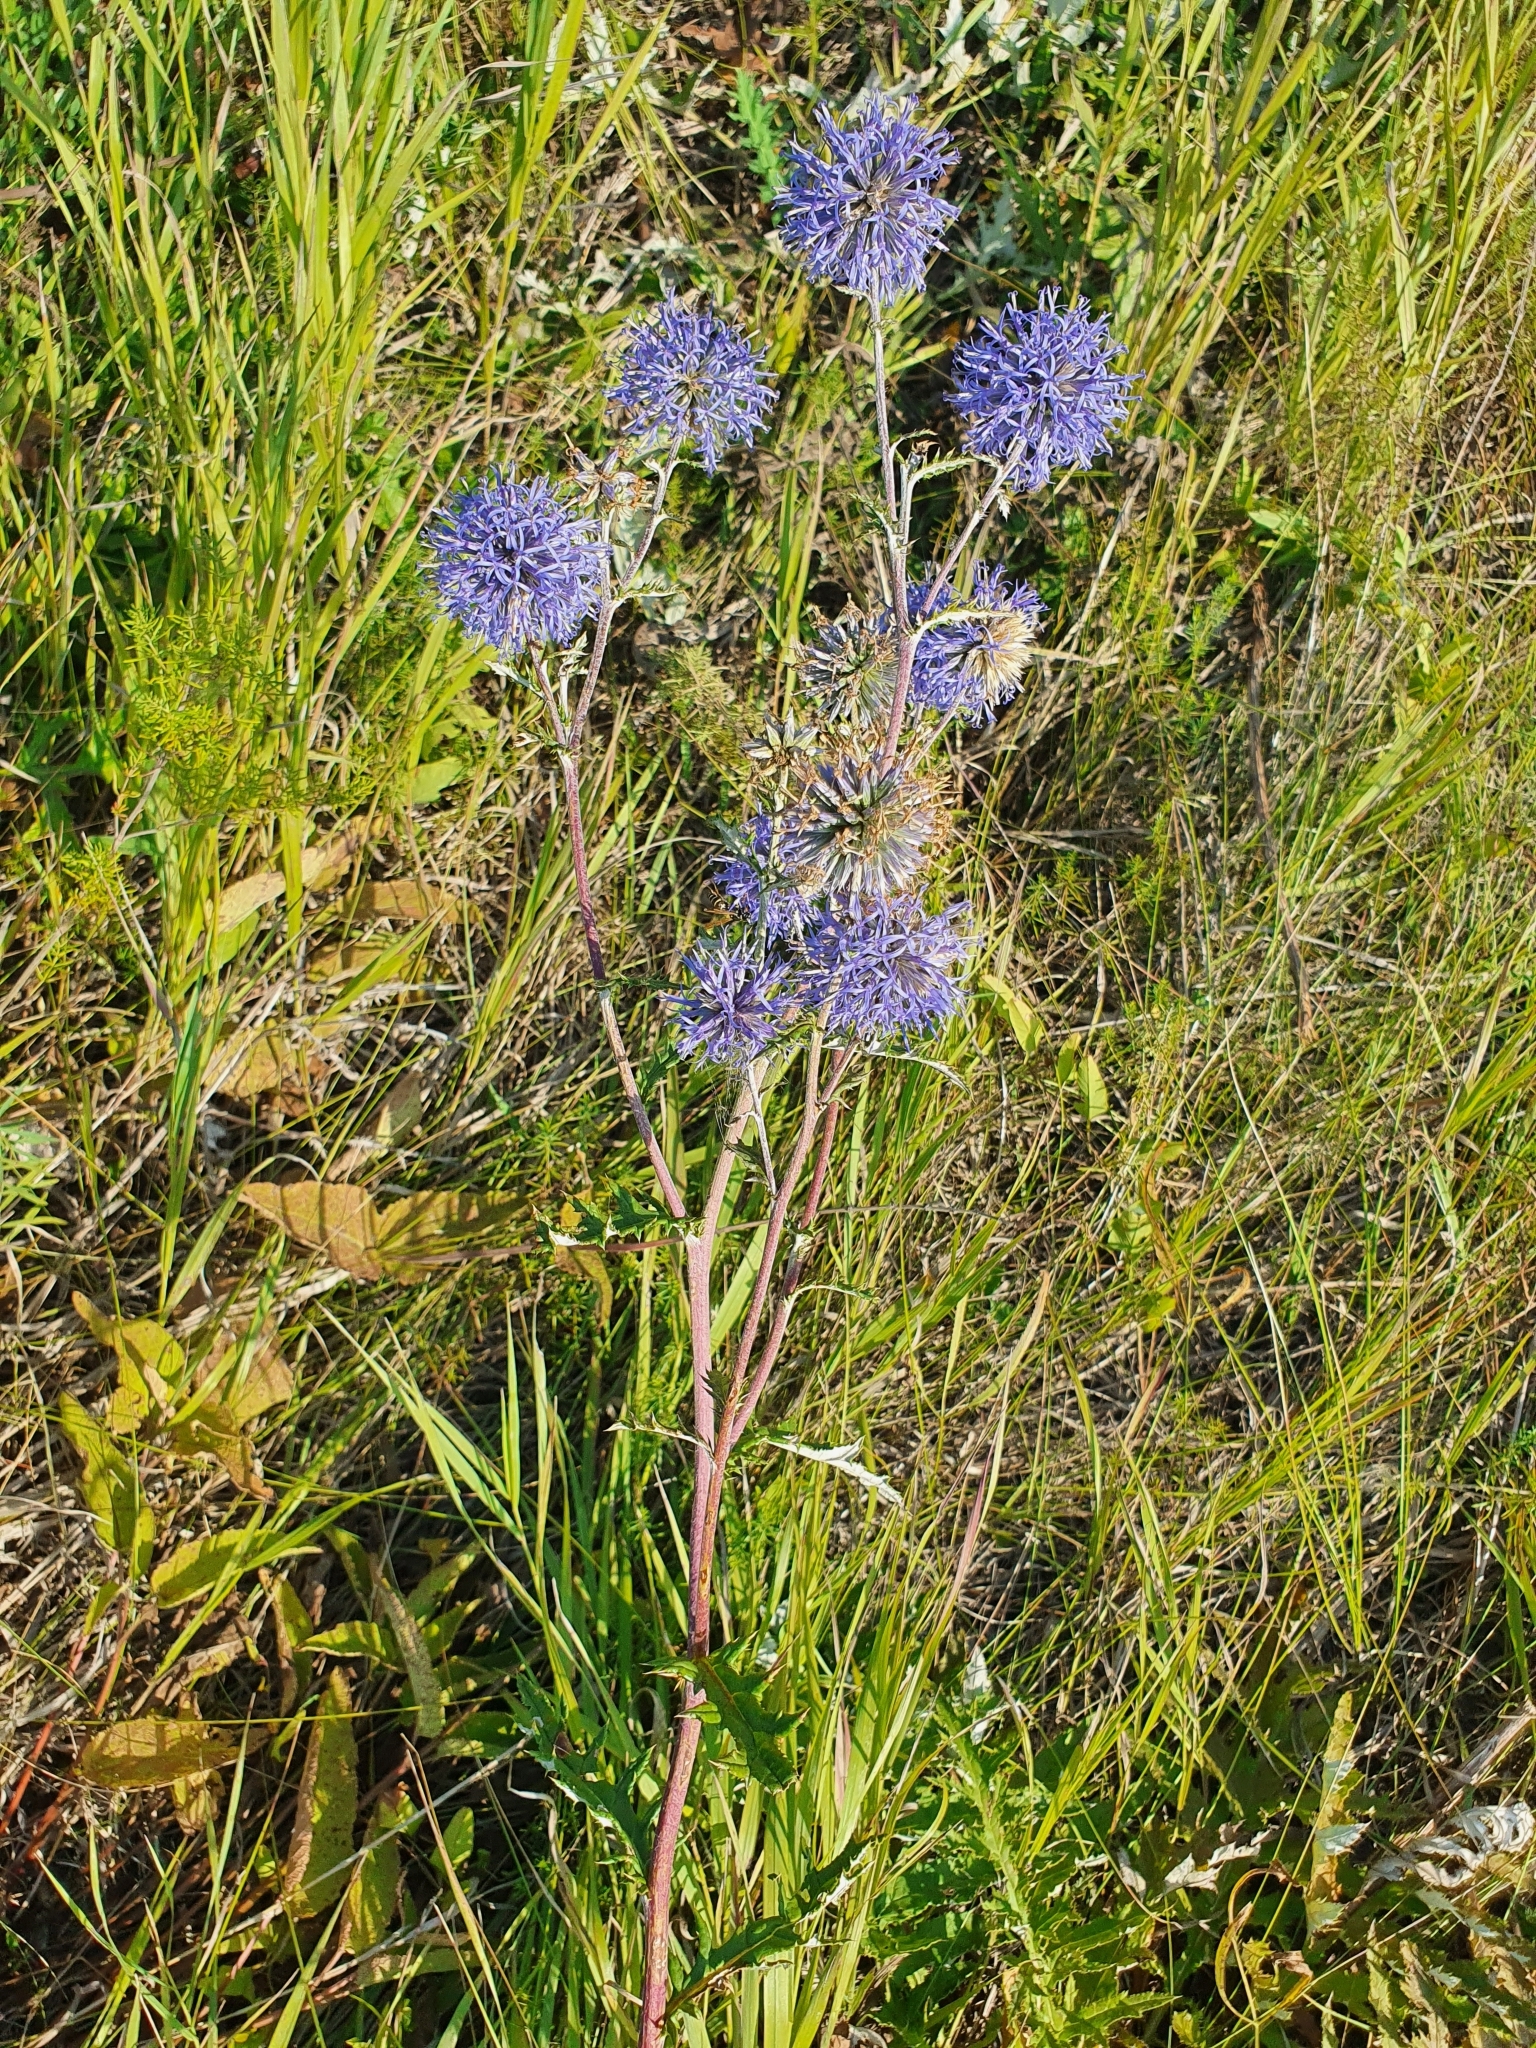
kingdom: Plantae
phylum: Tracheophyta
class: Magnoliopsida
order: Asterales
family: Asteraceae
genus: Echinops
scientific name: Echinops ritro
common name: Globe thistle
